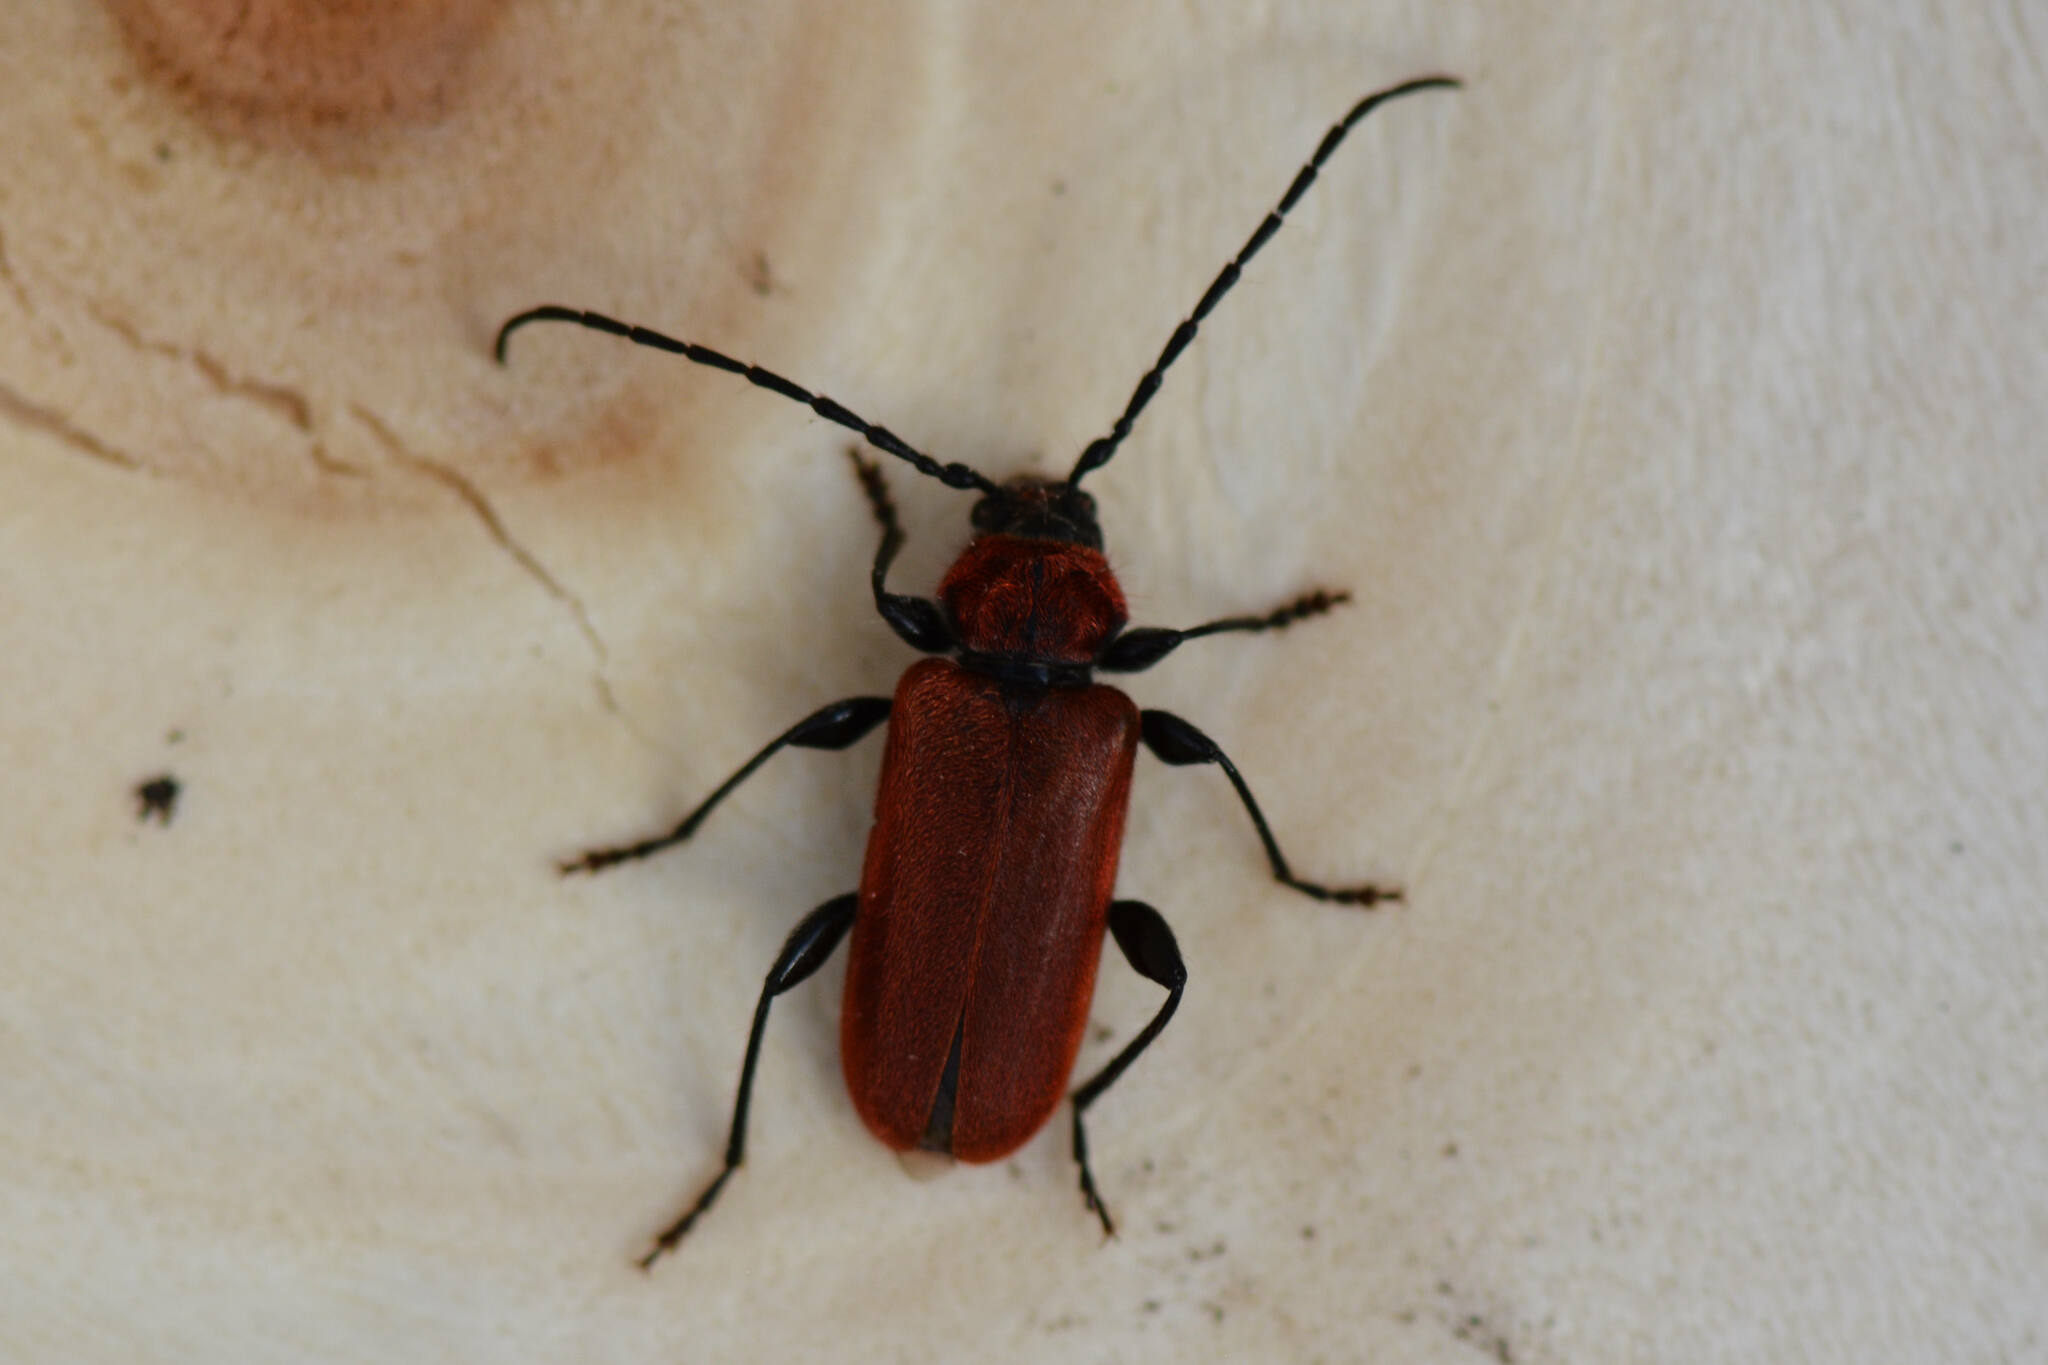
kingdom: Animalia
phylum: Arthropoda
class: Insecta
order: Coleoptera
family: Cerambycidae
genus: Pyrrhidium
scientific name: Pyrrhidium sanguineum
